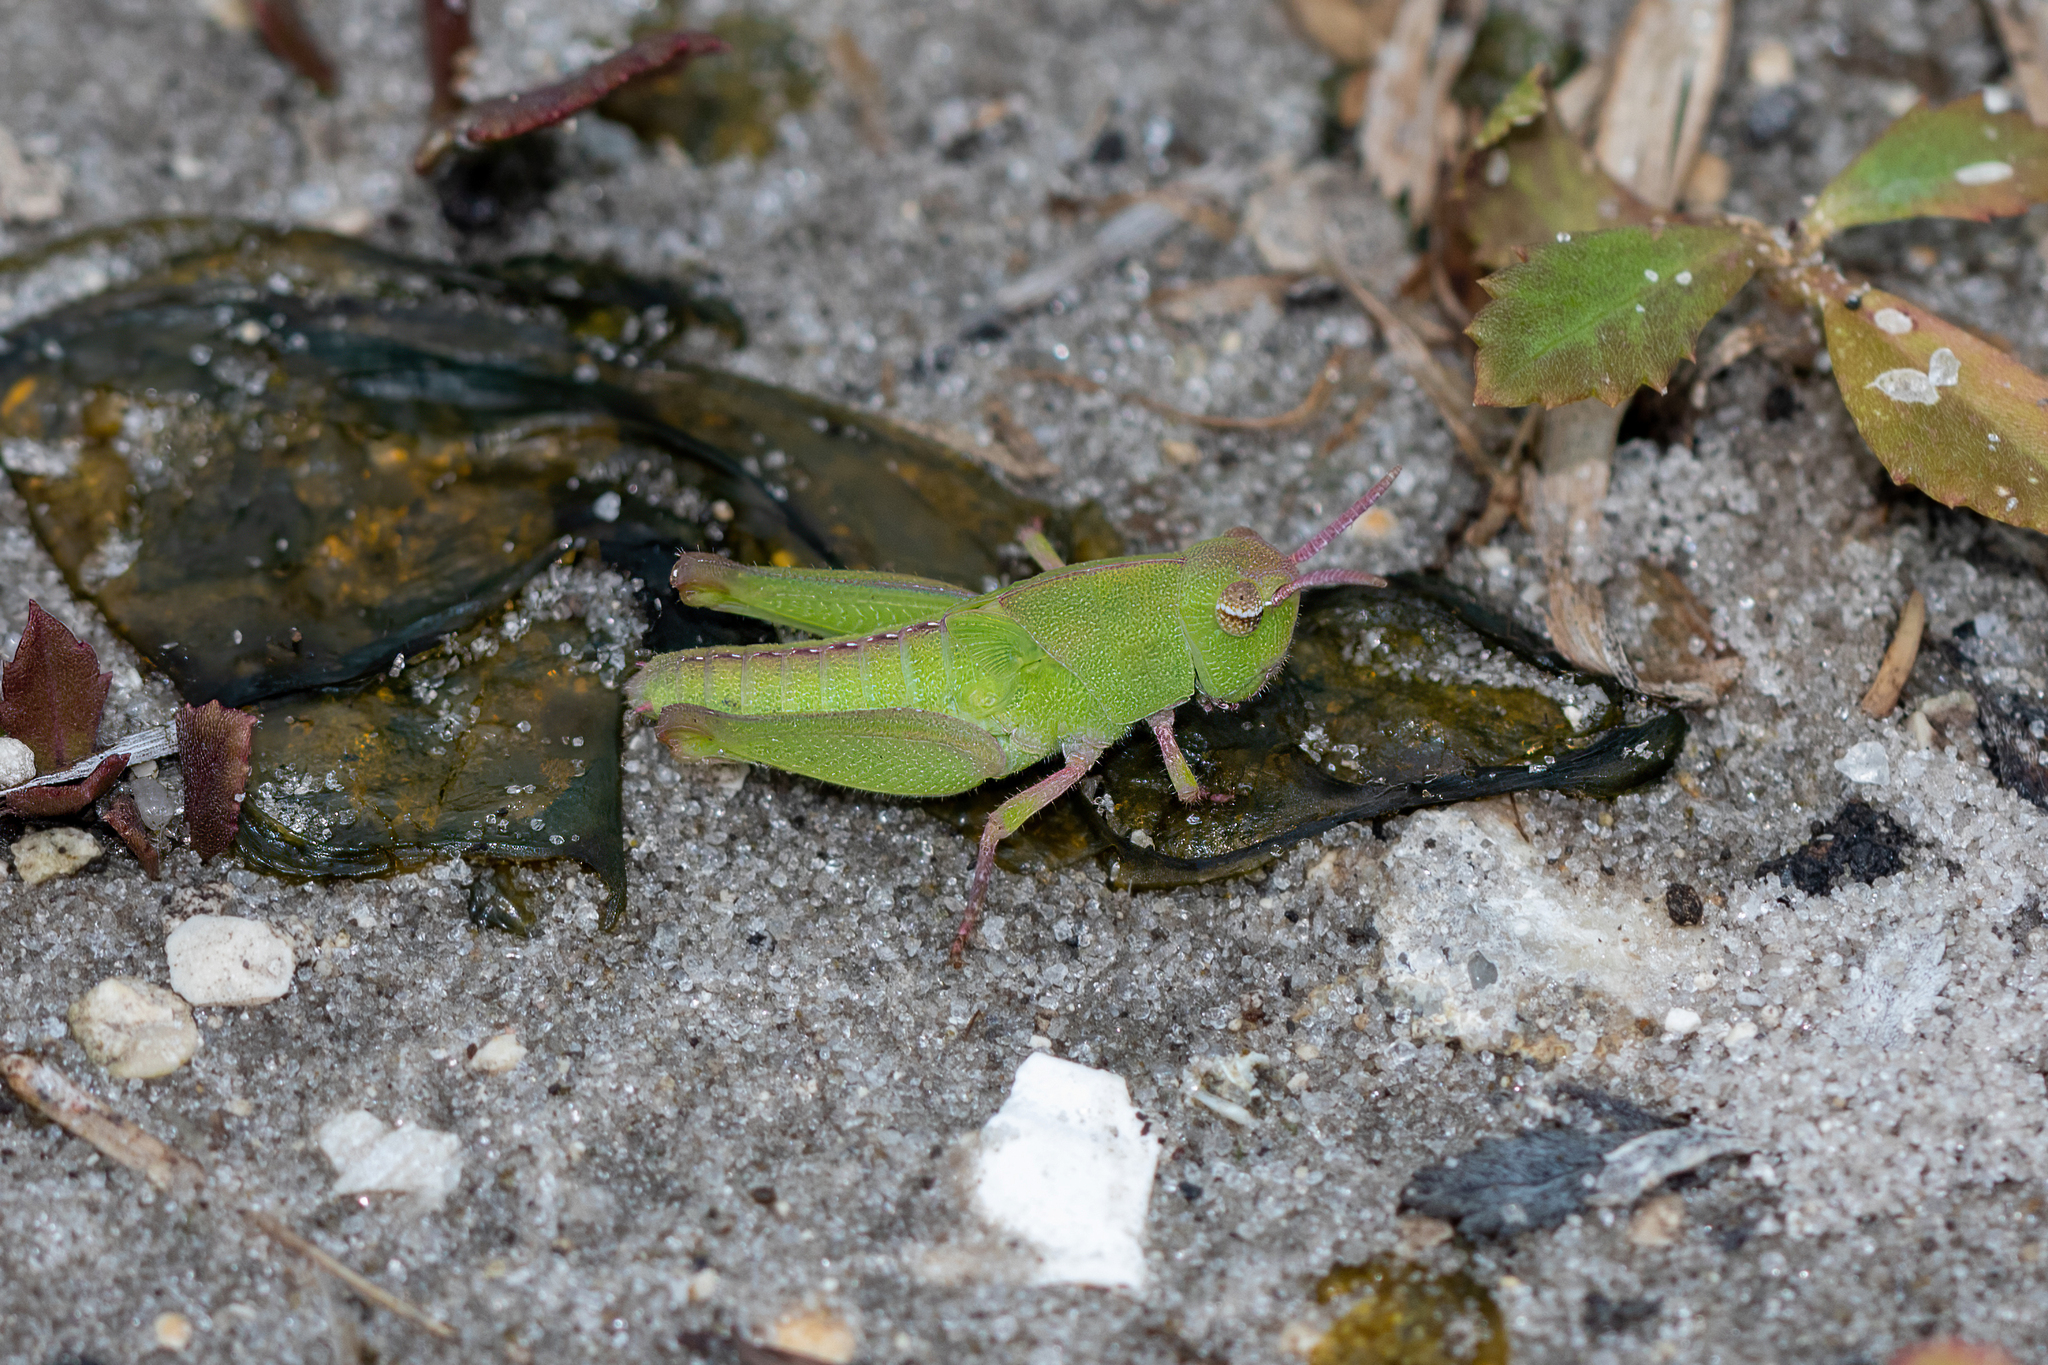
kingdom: Animalia
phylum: Arthropoda
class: Insecta
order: Orthoptera
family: Acrididae
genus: Chortophaga
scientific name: Chortophaga australior
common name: Southern green-striped grasshopper
